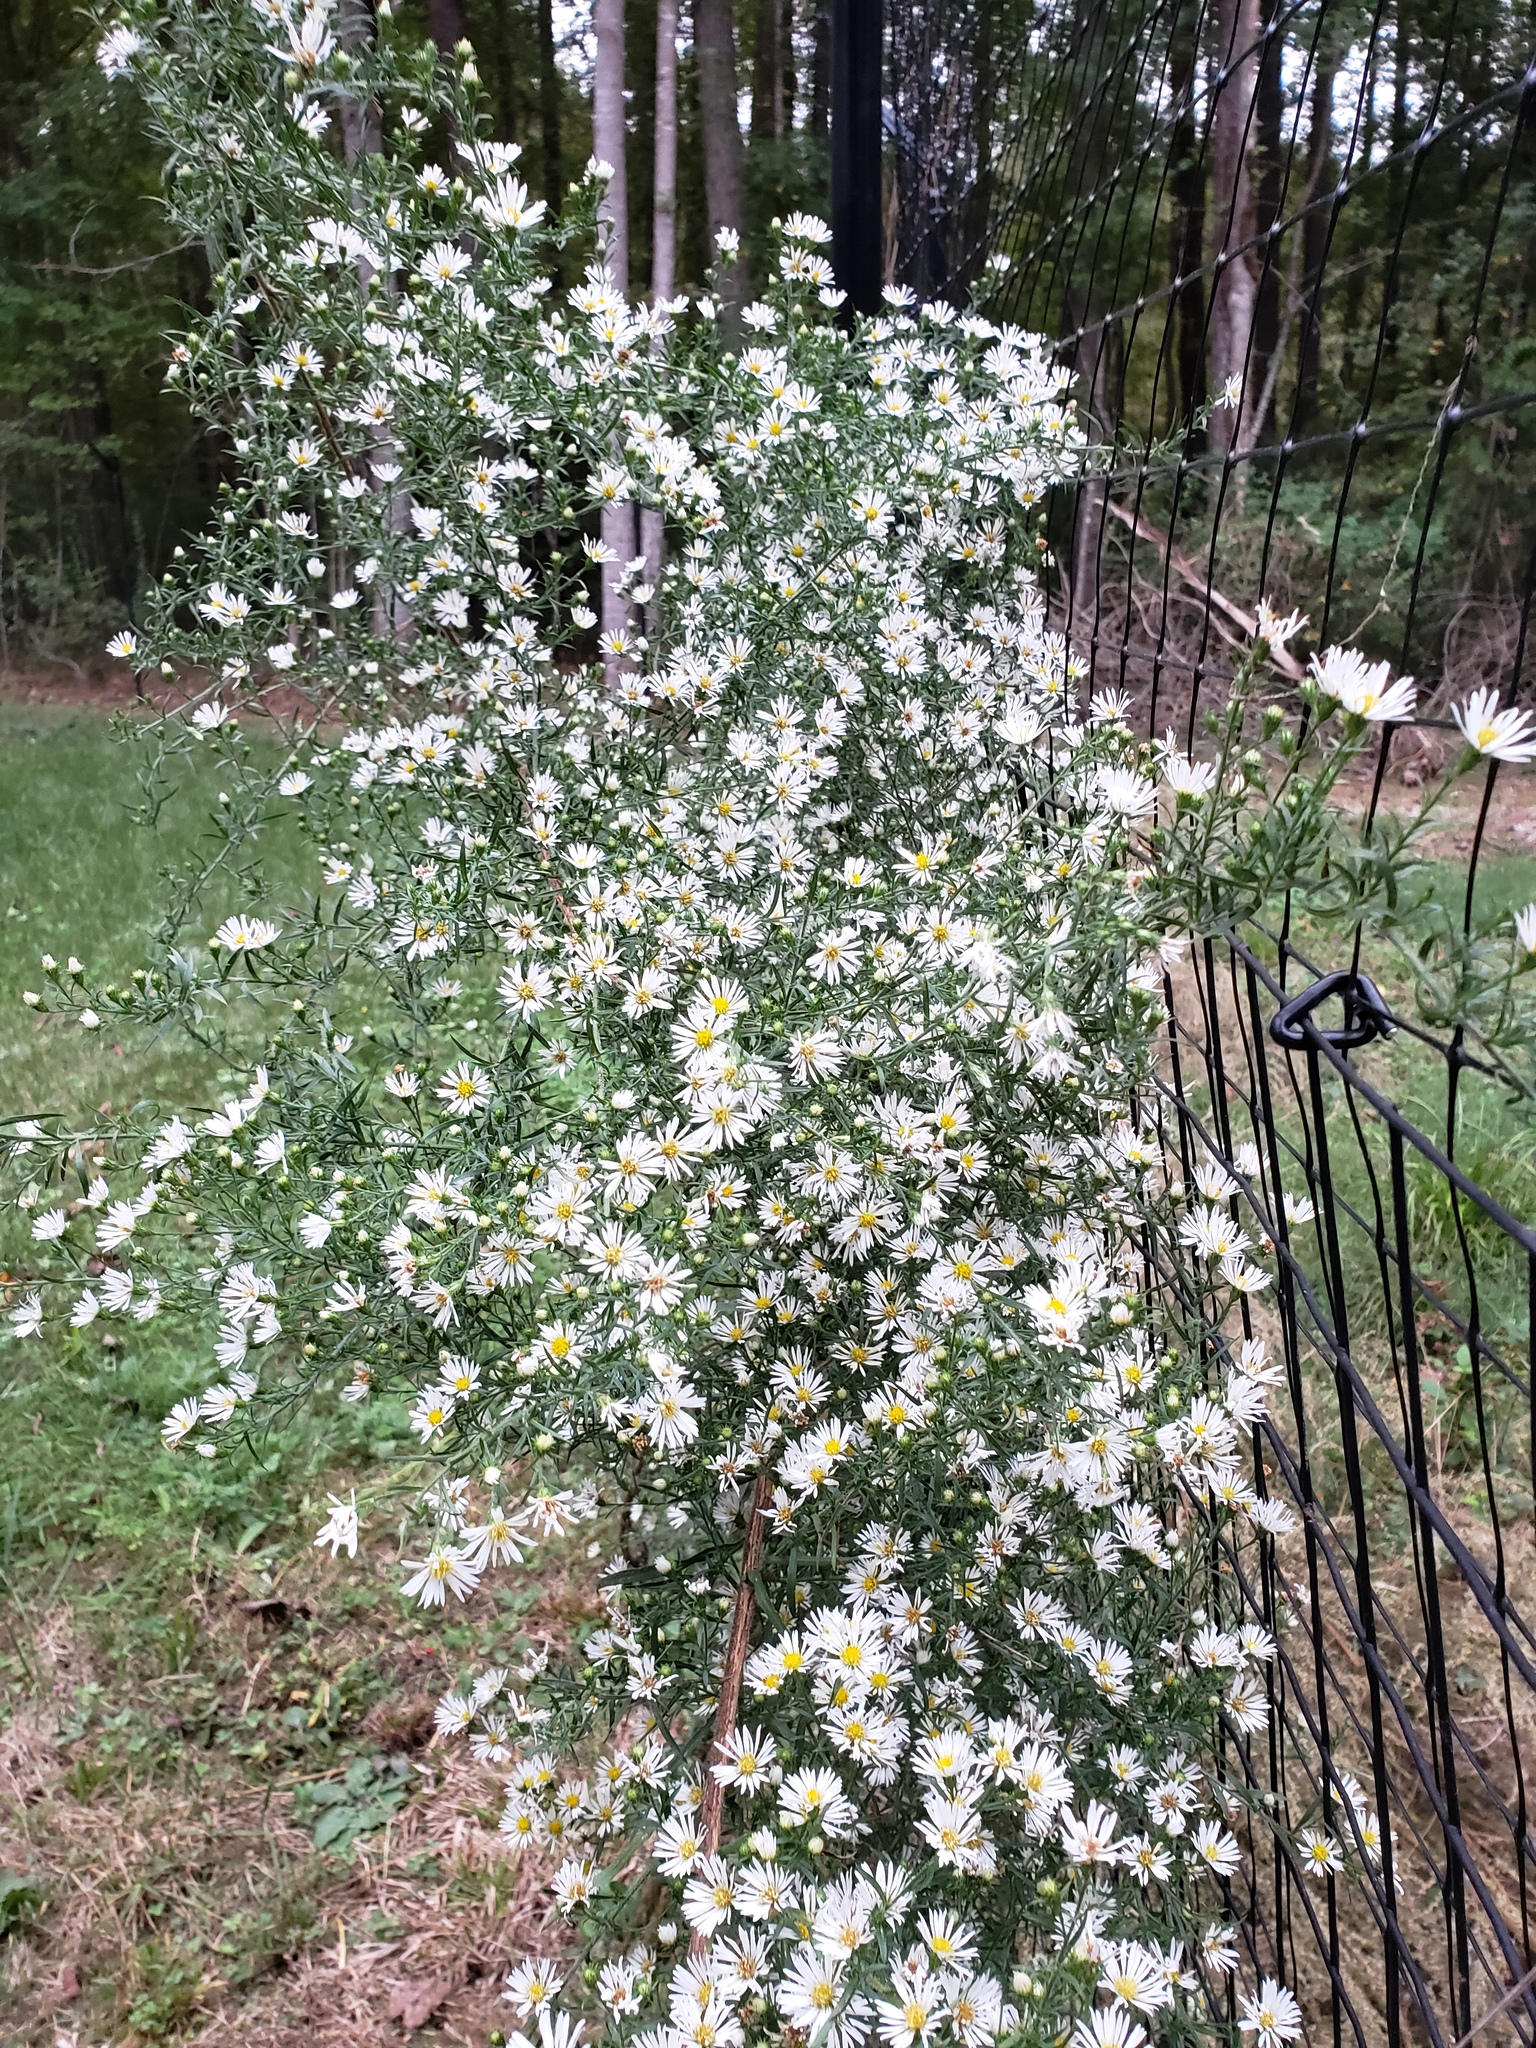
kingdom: Plantae
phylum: Tracheophyta
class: Magnoliopsida
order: Asterales
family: Asteraceae
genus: Symphyotrichum
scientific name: Symphyotrichum pilosum
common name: Awl aster
